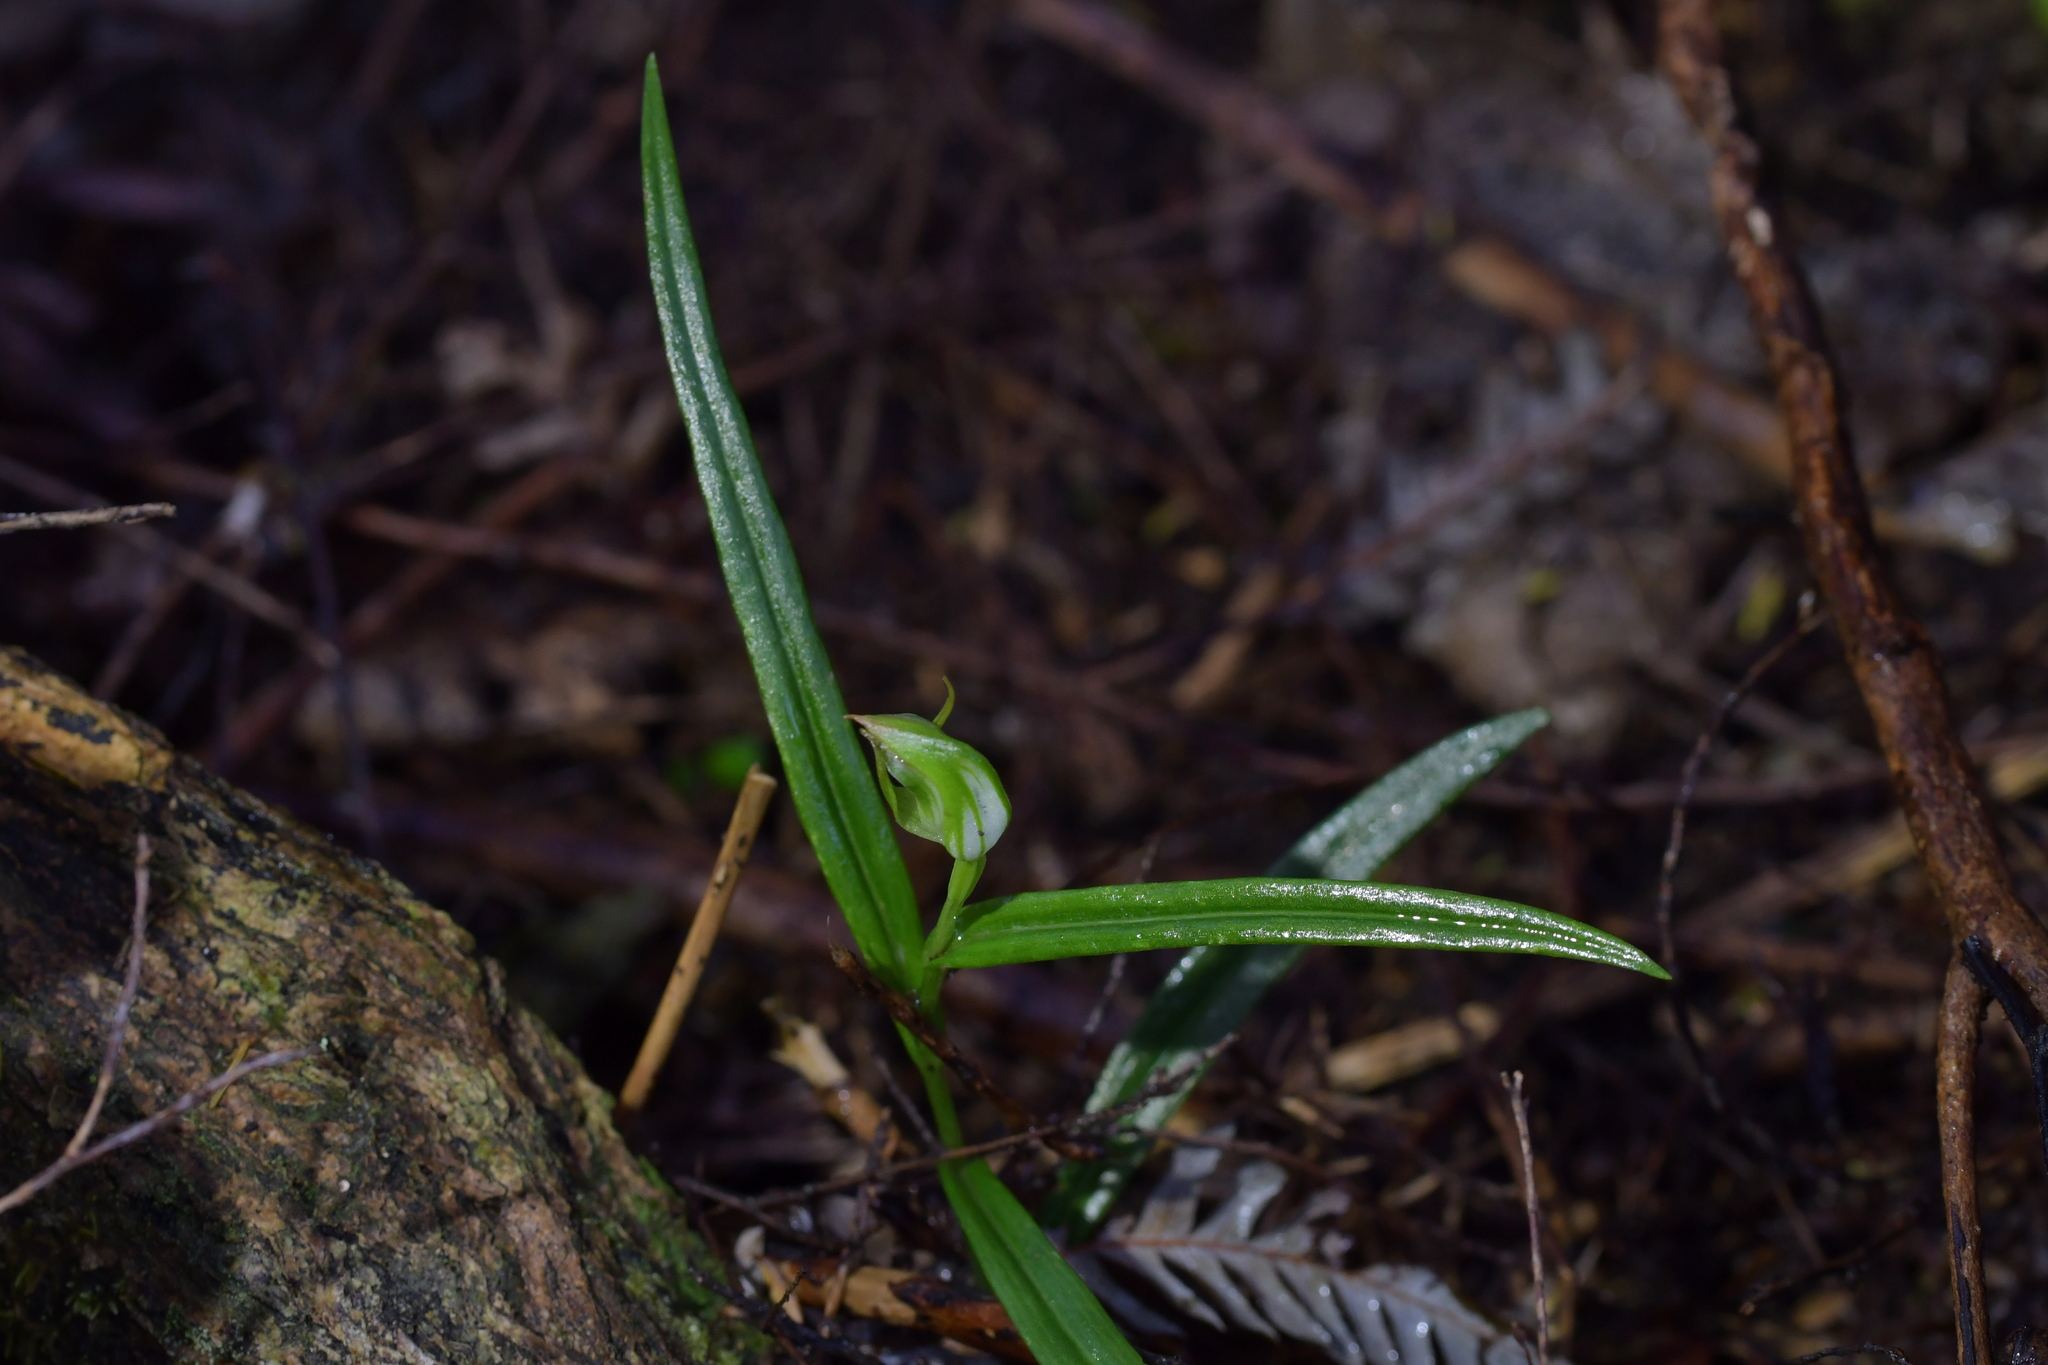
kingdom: Plantae
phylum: Tracheophyta
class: Liliopsida
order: Asparagales
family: Orchidaceae
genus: Pterostylis
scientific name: Pterostylis graminea
